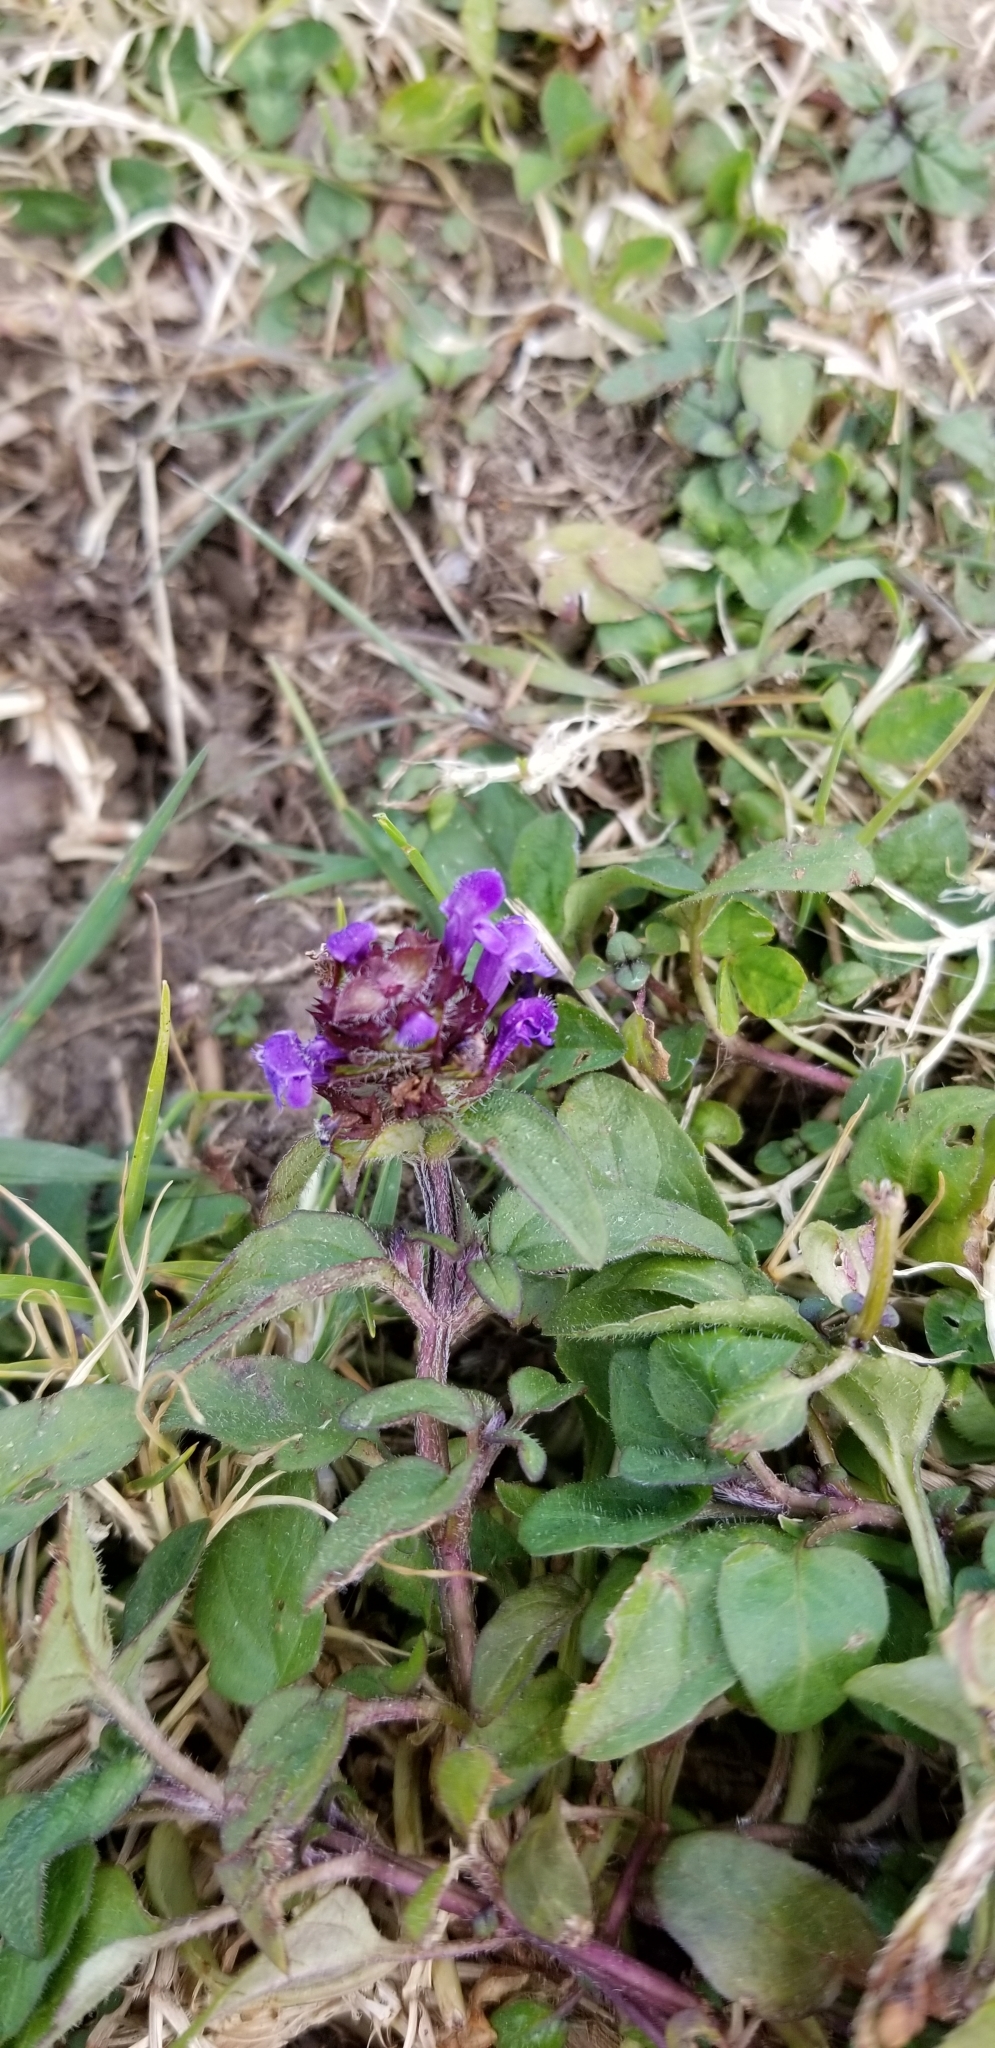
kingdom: Plantae
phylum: Tracheophyta
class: Magnoliopsida
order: Lamiales
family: Lamiaceae
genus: Prunella
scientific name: Prunella vulgaris
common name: Heal-all
